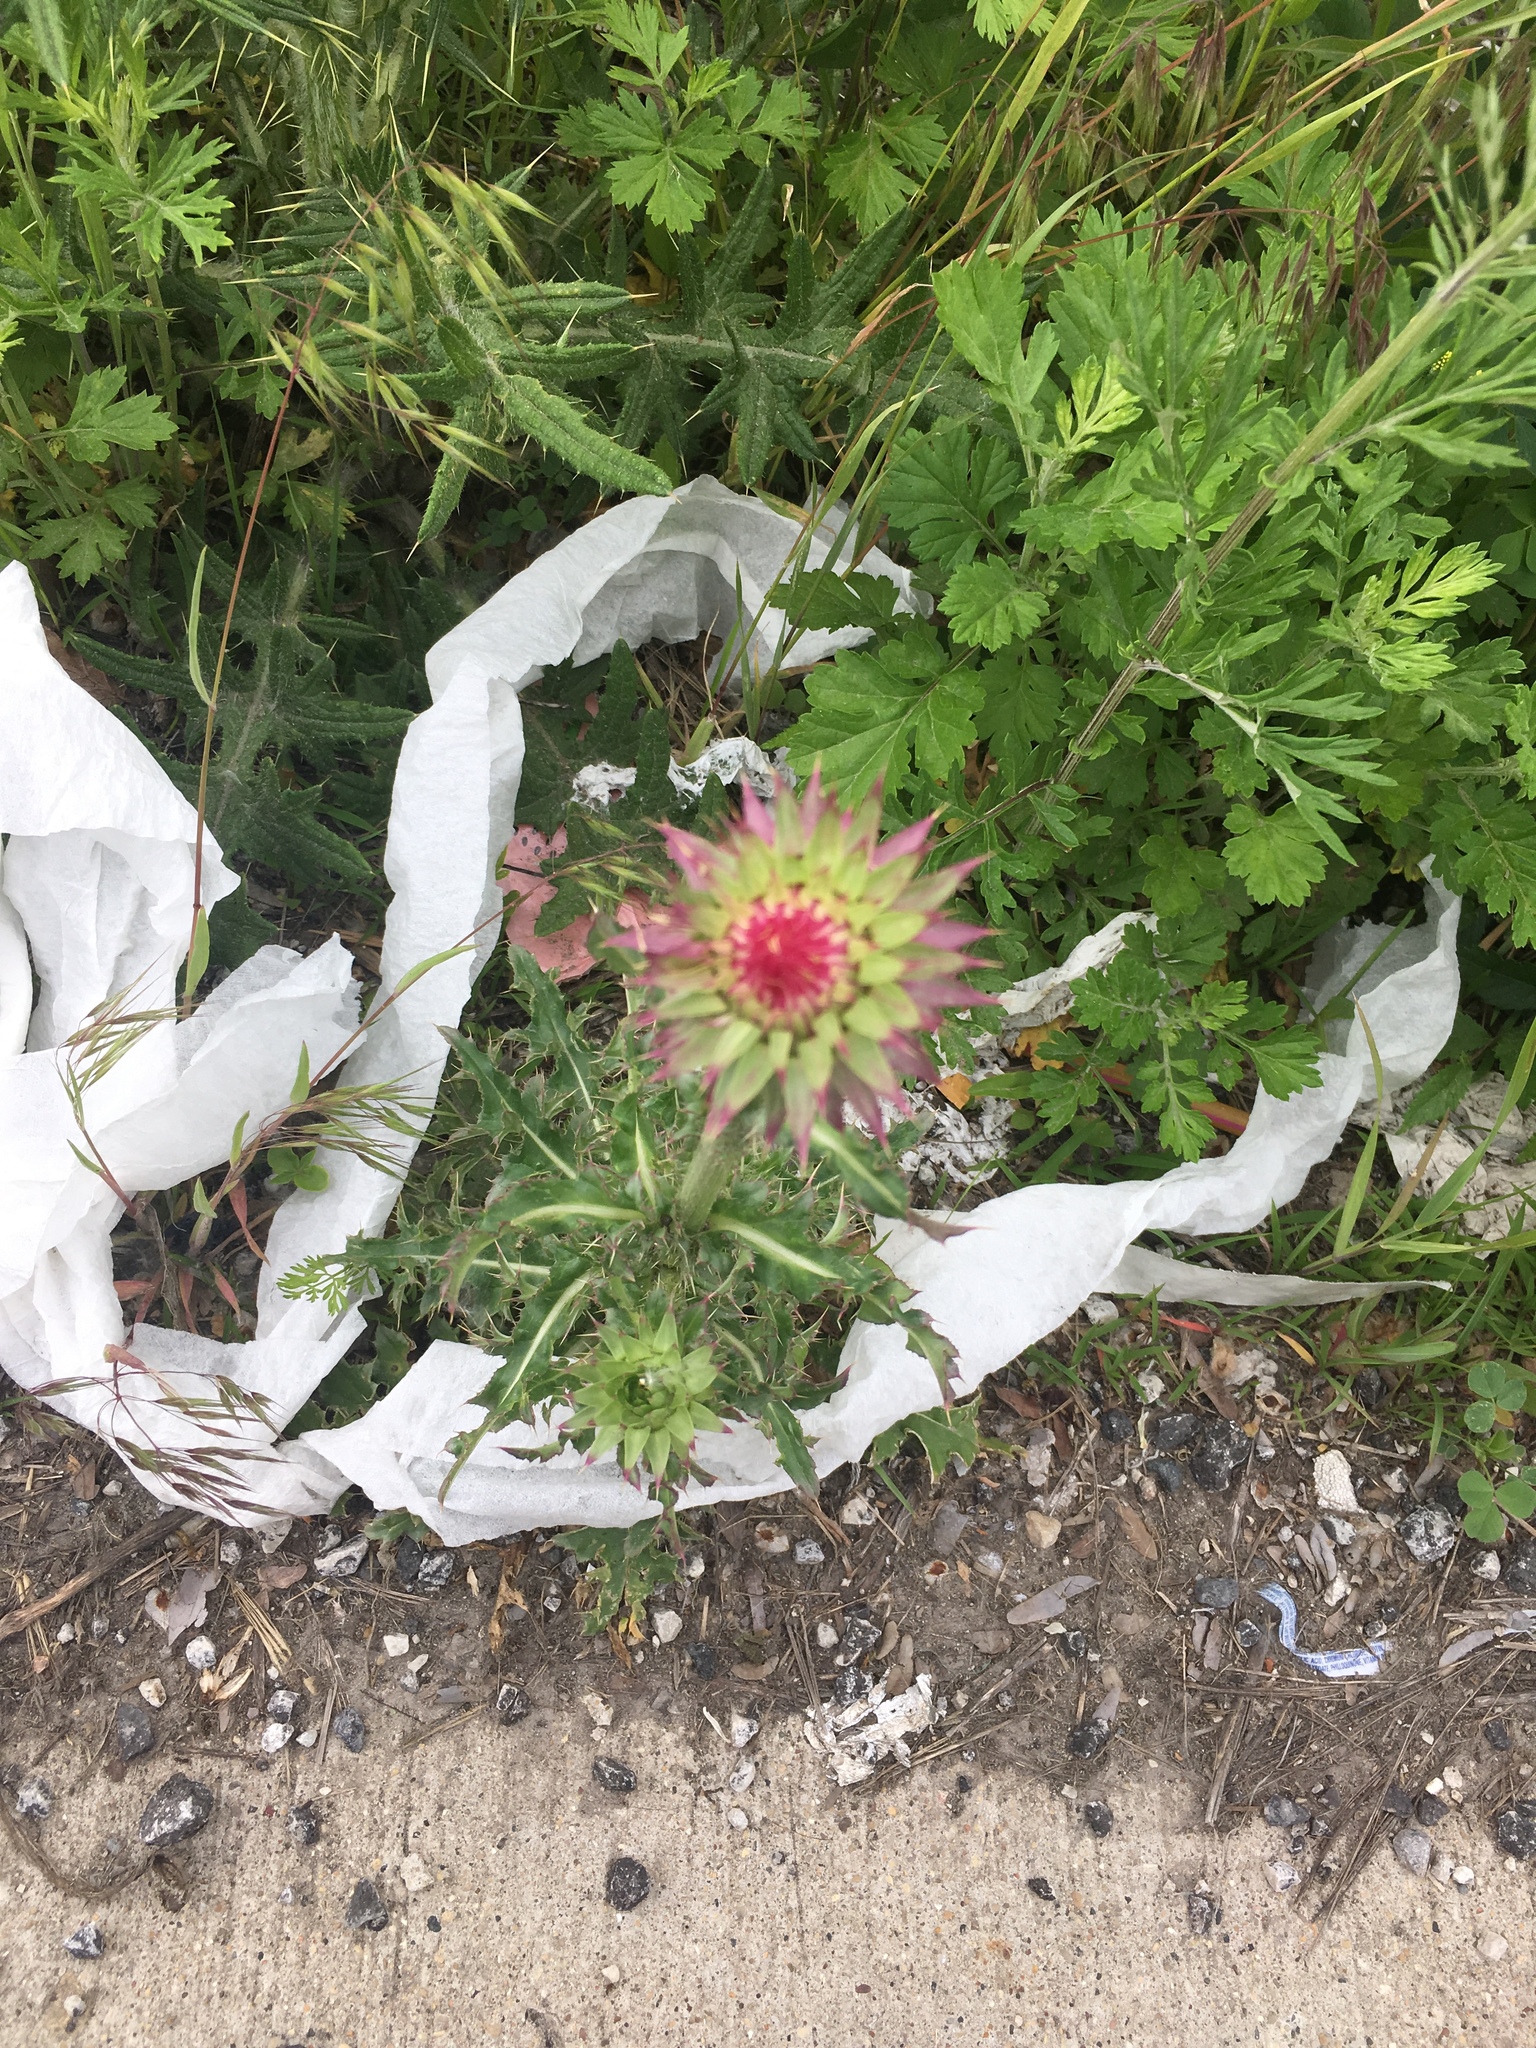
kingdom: Plantae
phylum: Tracheophyta
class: Magnoliopsida
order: Asterales
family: Asteraceae
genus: Carduus
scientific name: Carduus nutans
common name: Musk thistle
